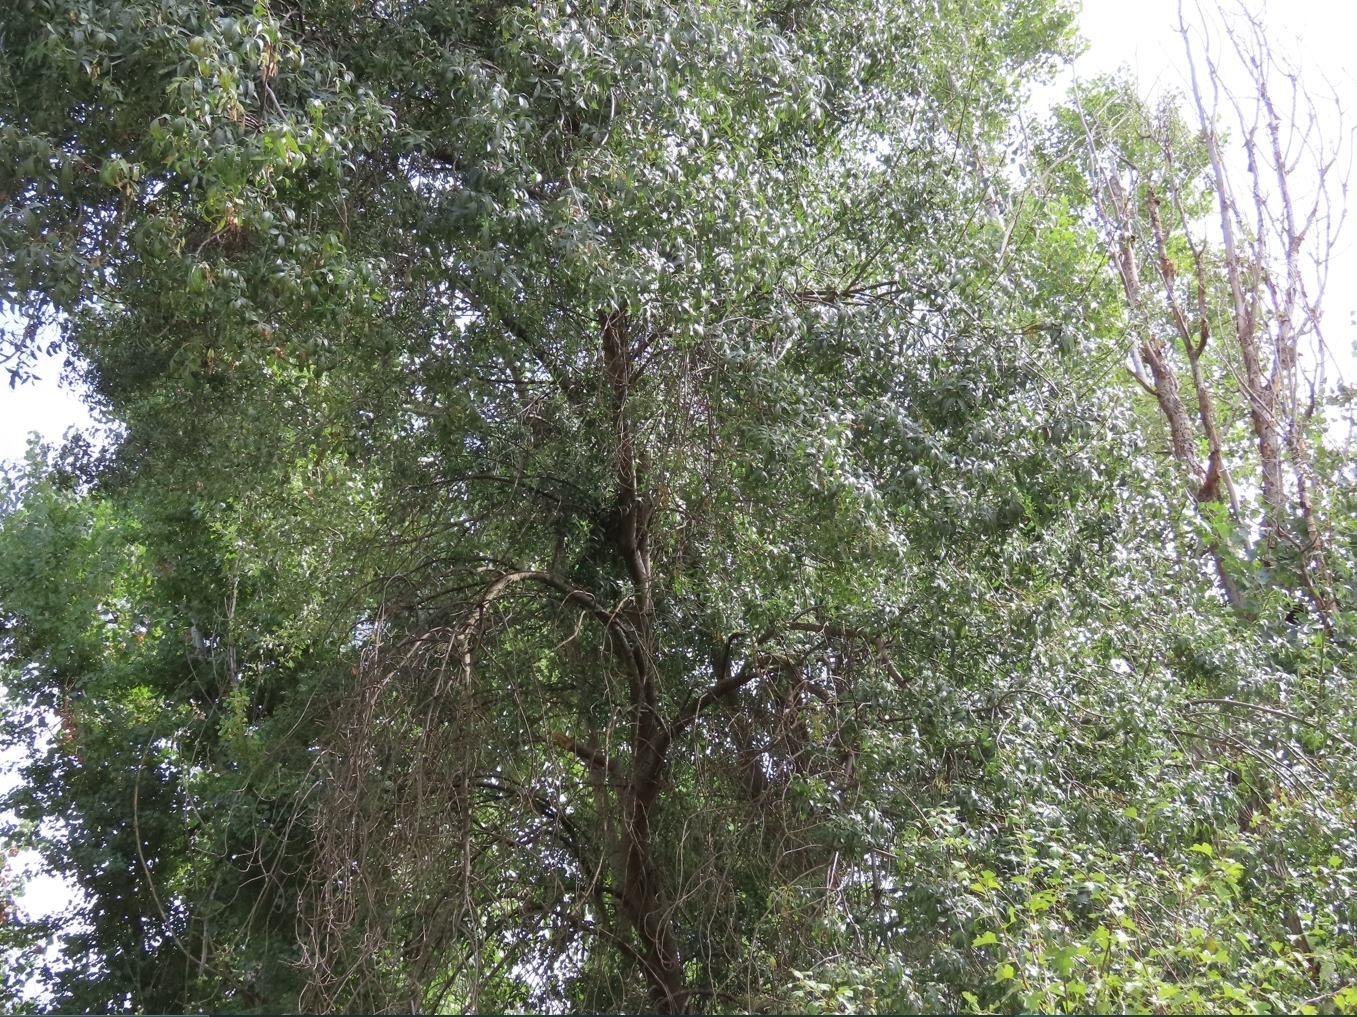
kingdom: Plantae
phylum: Tracheophyta
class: Magnoliopsida
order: Lamiales
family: Oleaceae
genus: Fraxinus
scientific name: Fraxinus angustifolia
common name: Narrow-leafed ash
